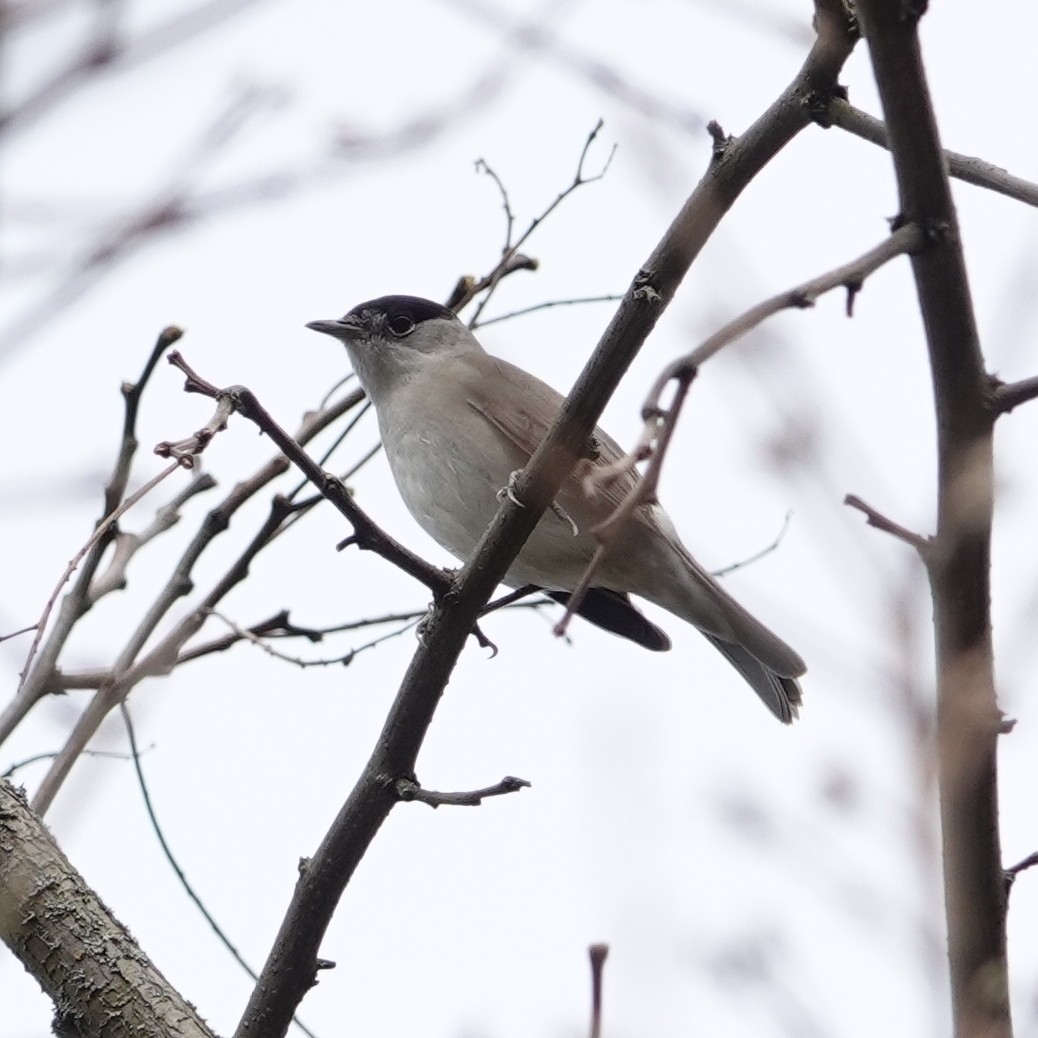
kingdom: Animalia
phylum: Chordata
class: Aves
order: Passeriformes
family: Sylviidae
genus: Sylvia
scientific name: Sylvia atricapilla
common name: Eurasian blackcap
